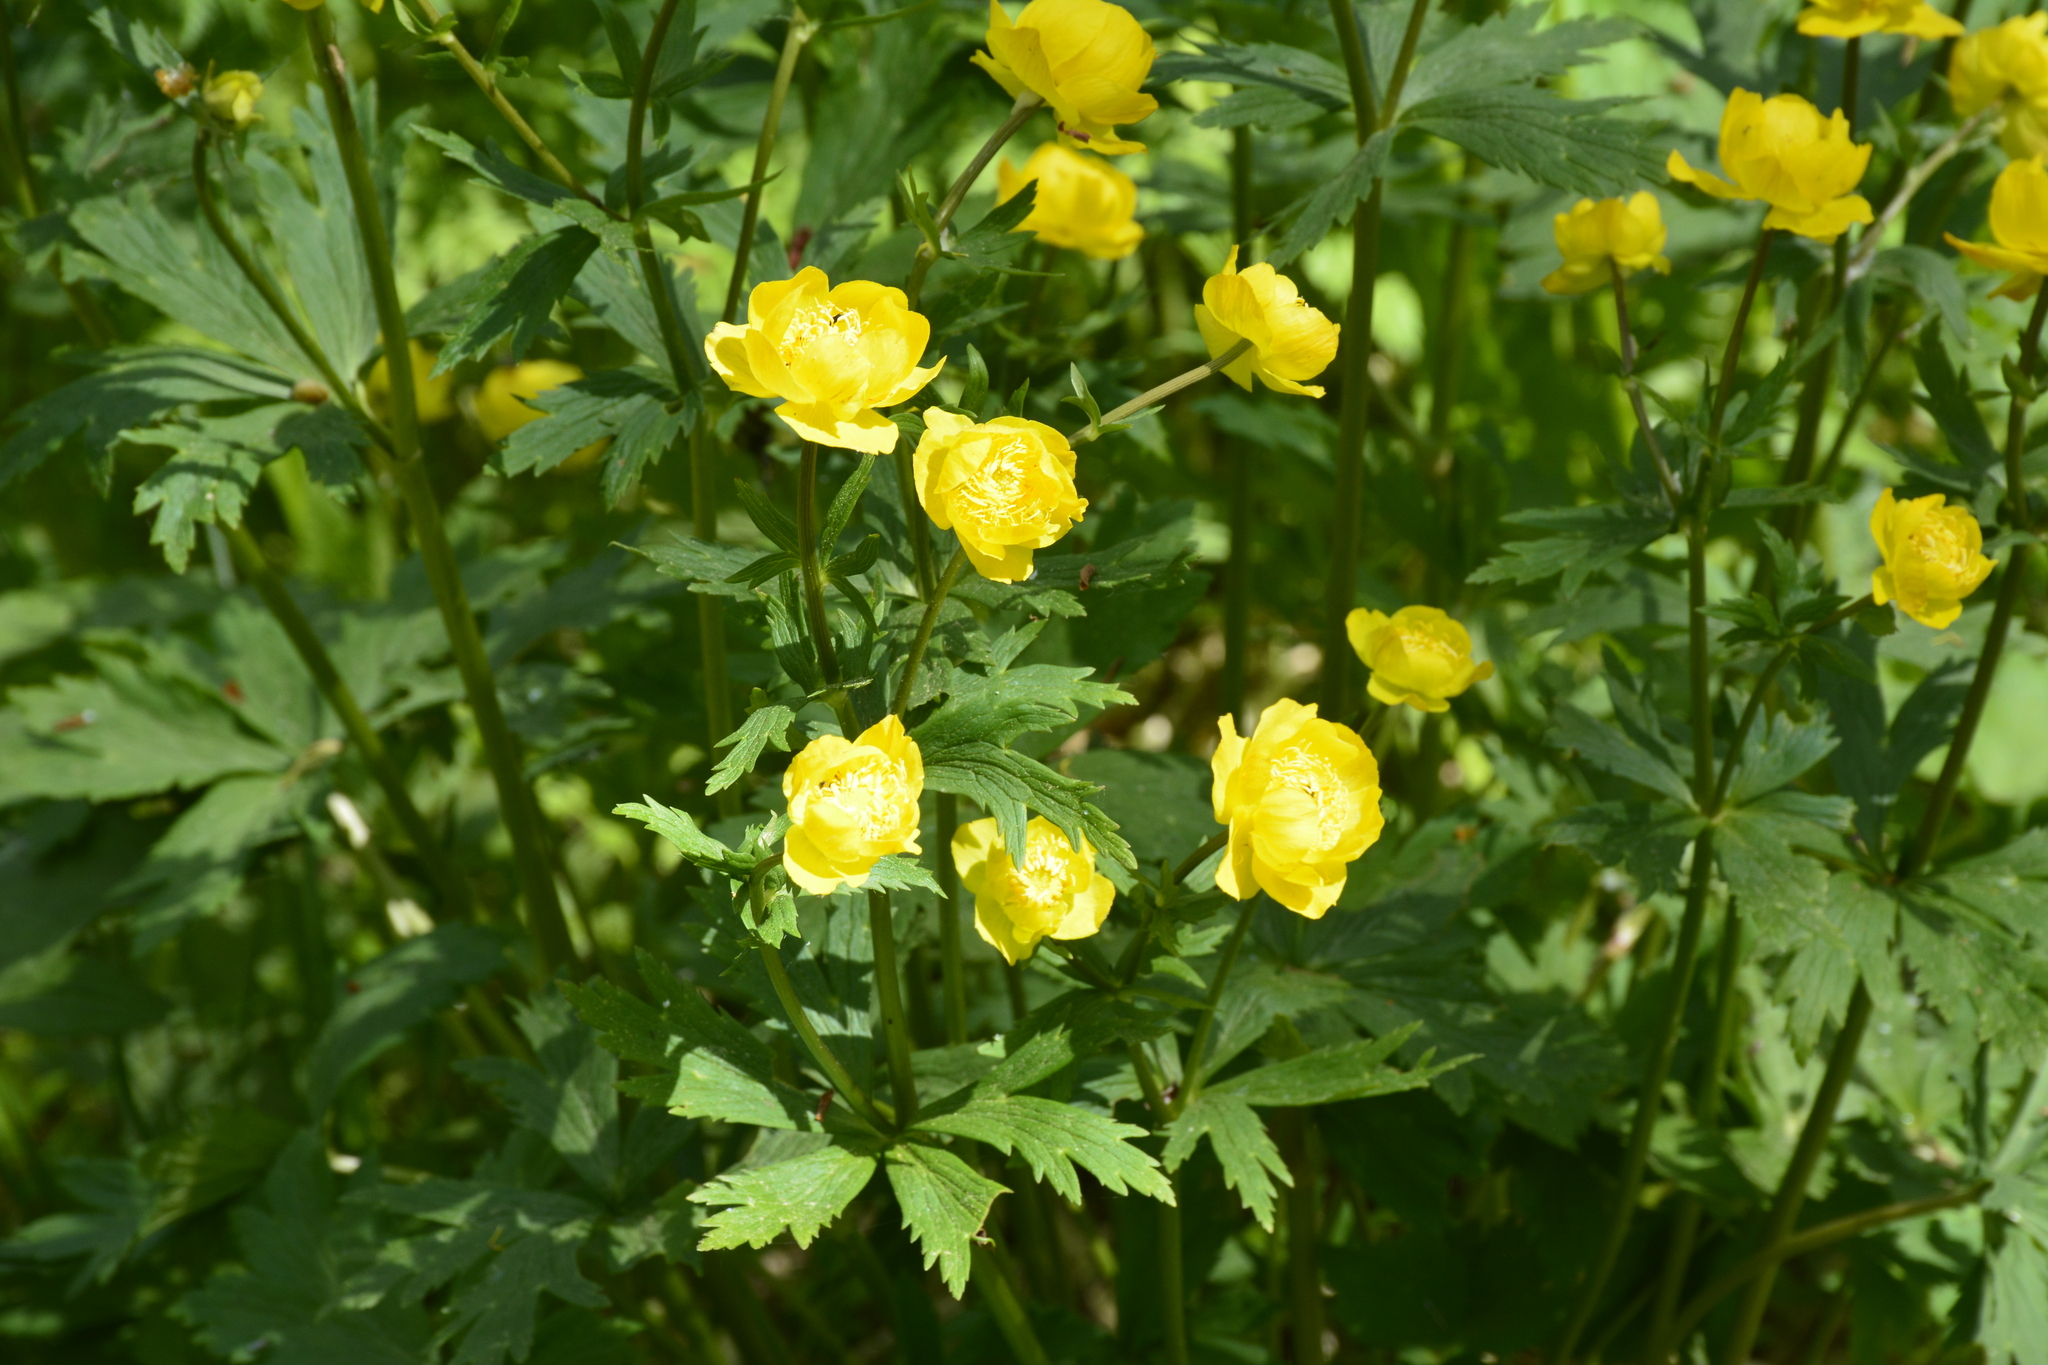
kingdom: Plantae
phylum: Tracheophyta
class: Magnoliopsida
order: Ranunculales
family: Ranunculaceae
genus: Trollius
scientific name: Trollius europaeus
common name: European globeflower
